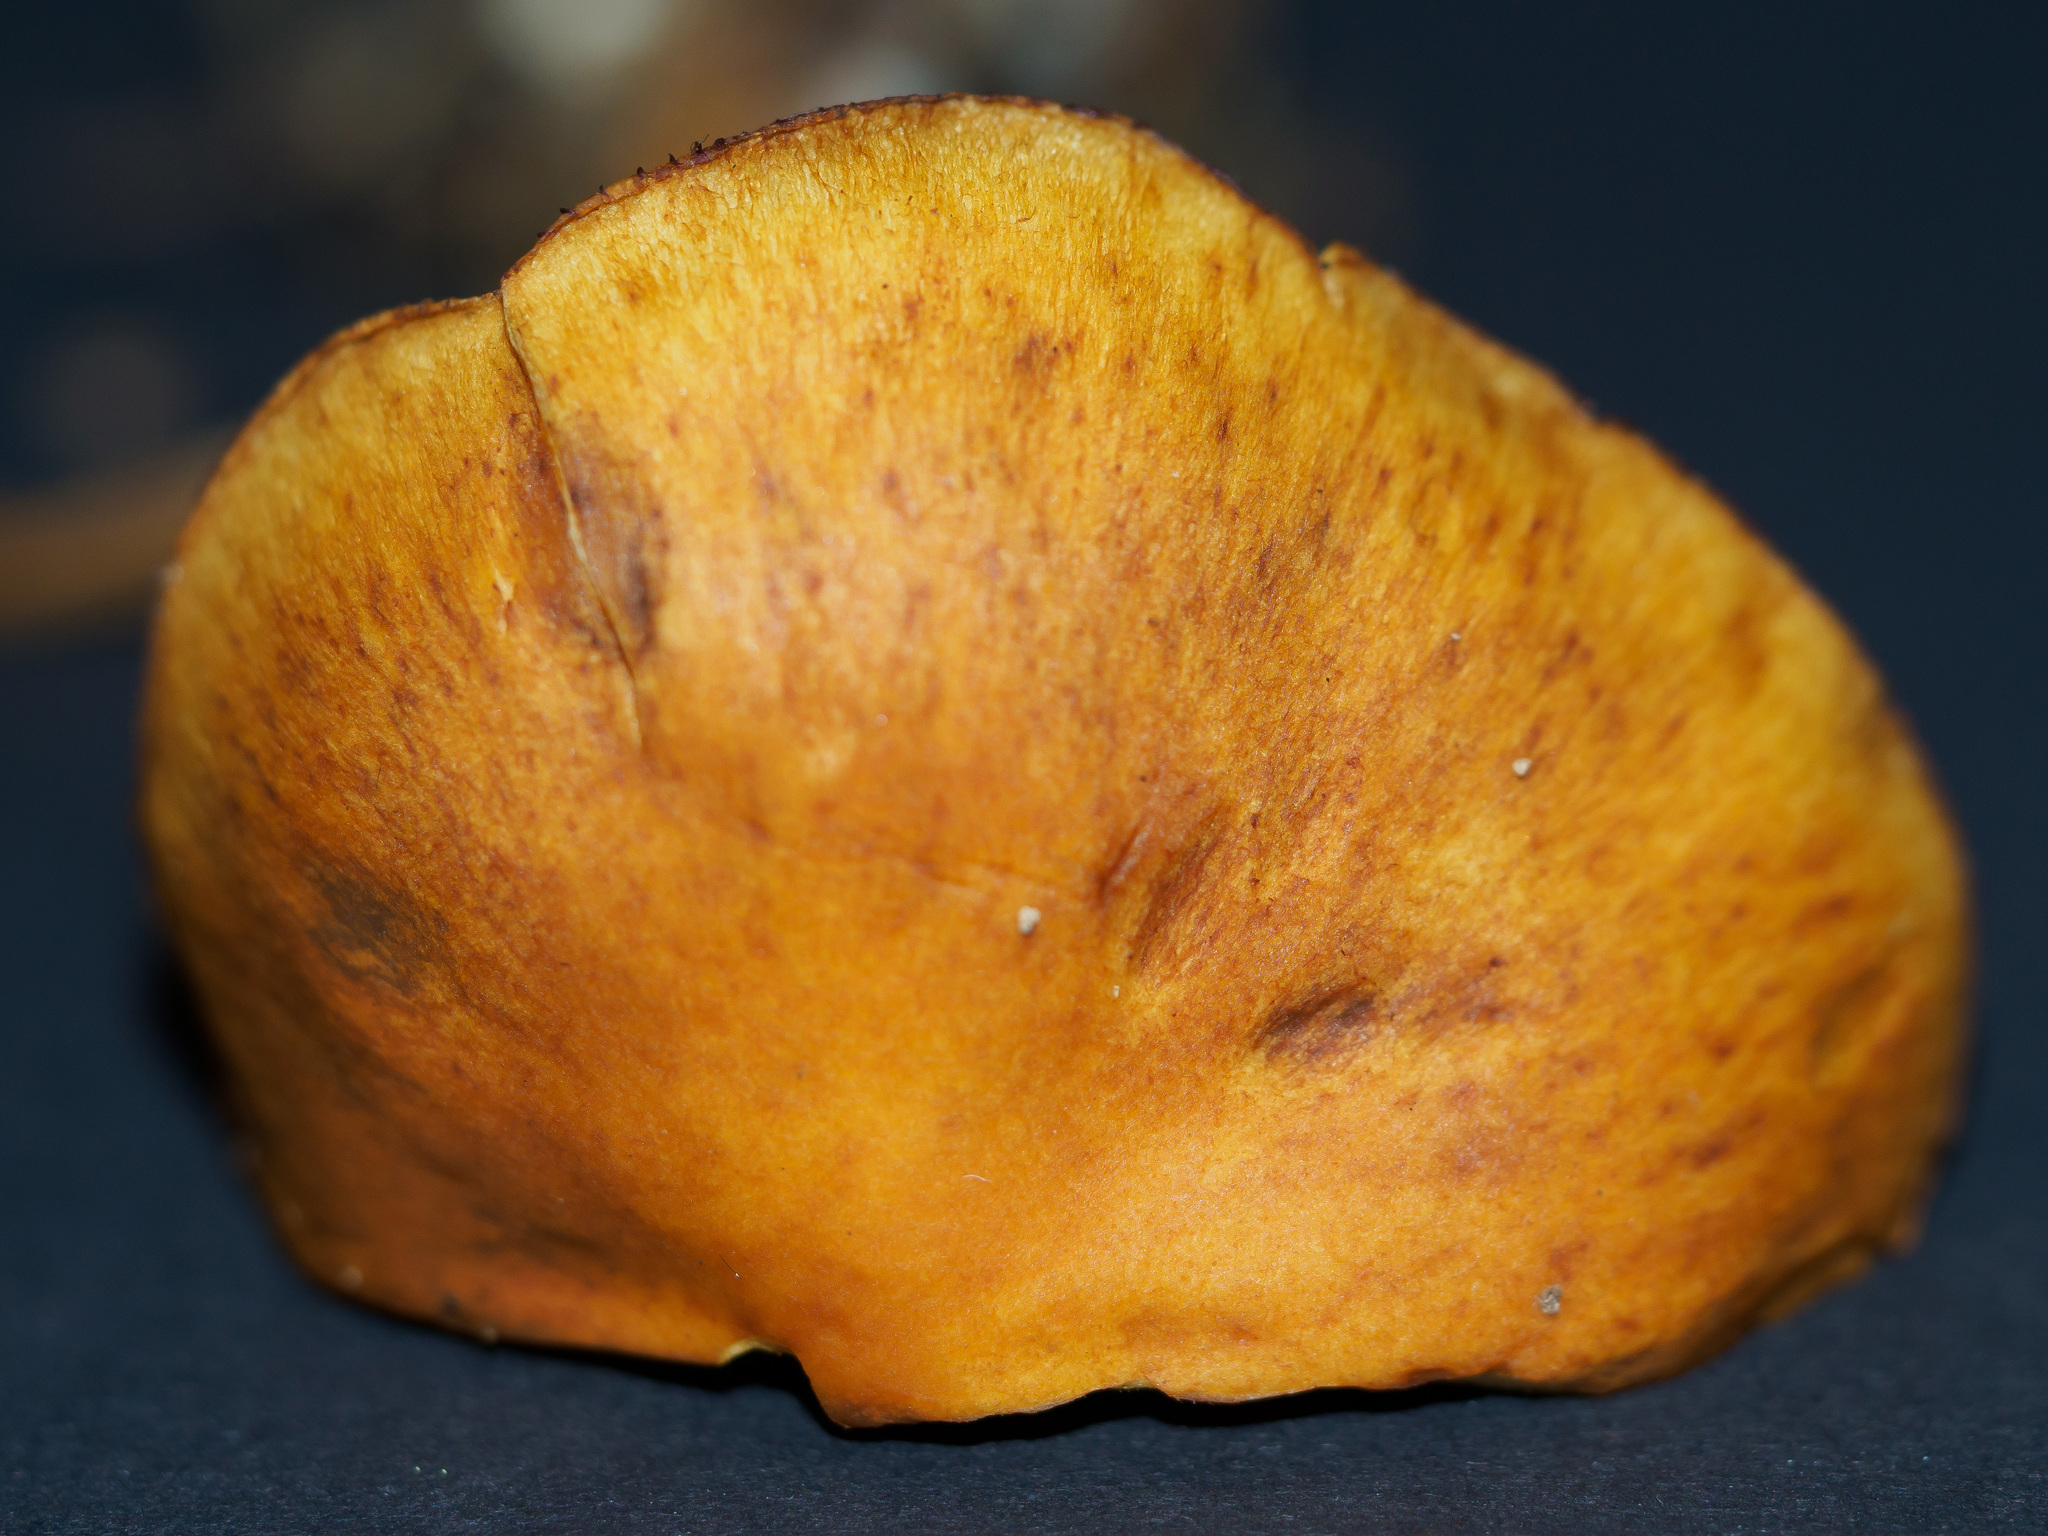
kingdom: Fungi
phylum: Basidiomycota
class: Agaricomycetes
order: Agaricales
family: Hymenogastraceae
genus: Gymnopilus
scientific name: Gymnopilus sapineus
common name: Scaly rustgill
